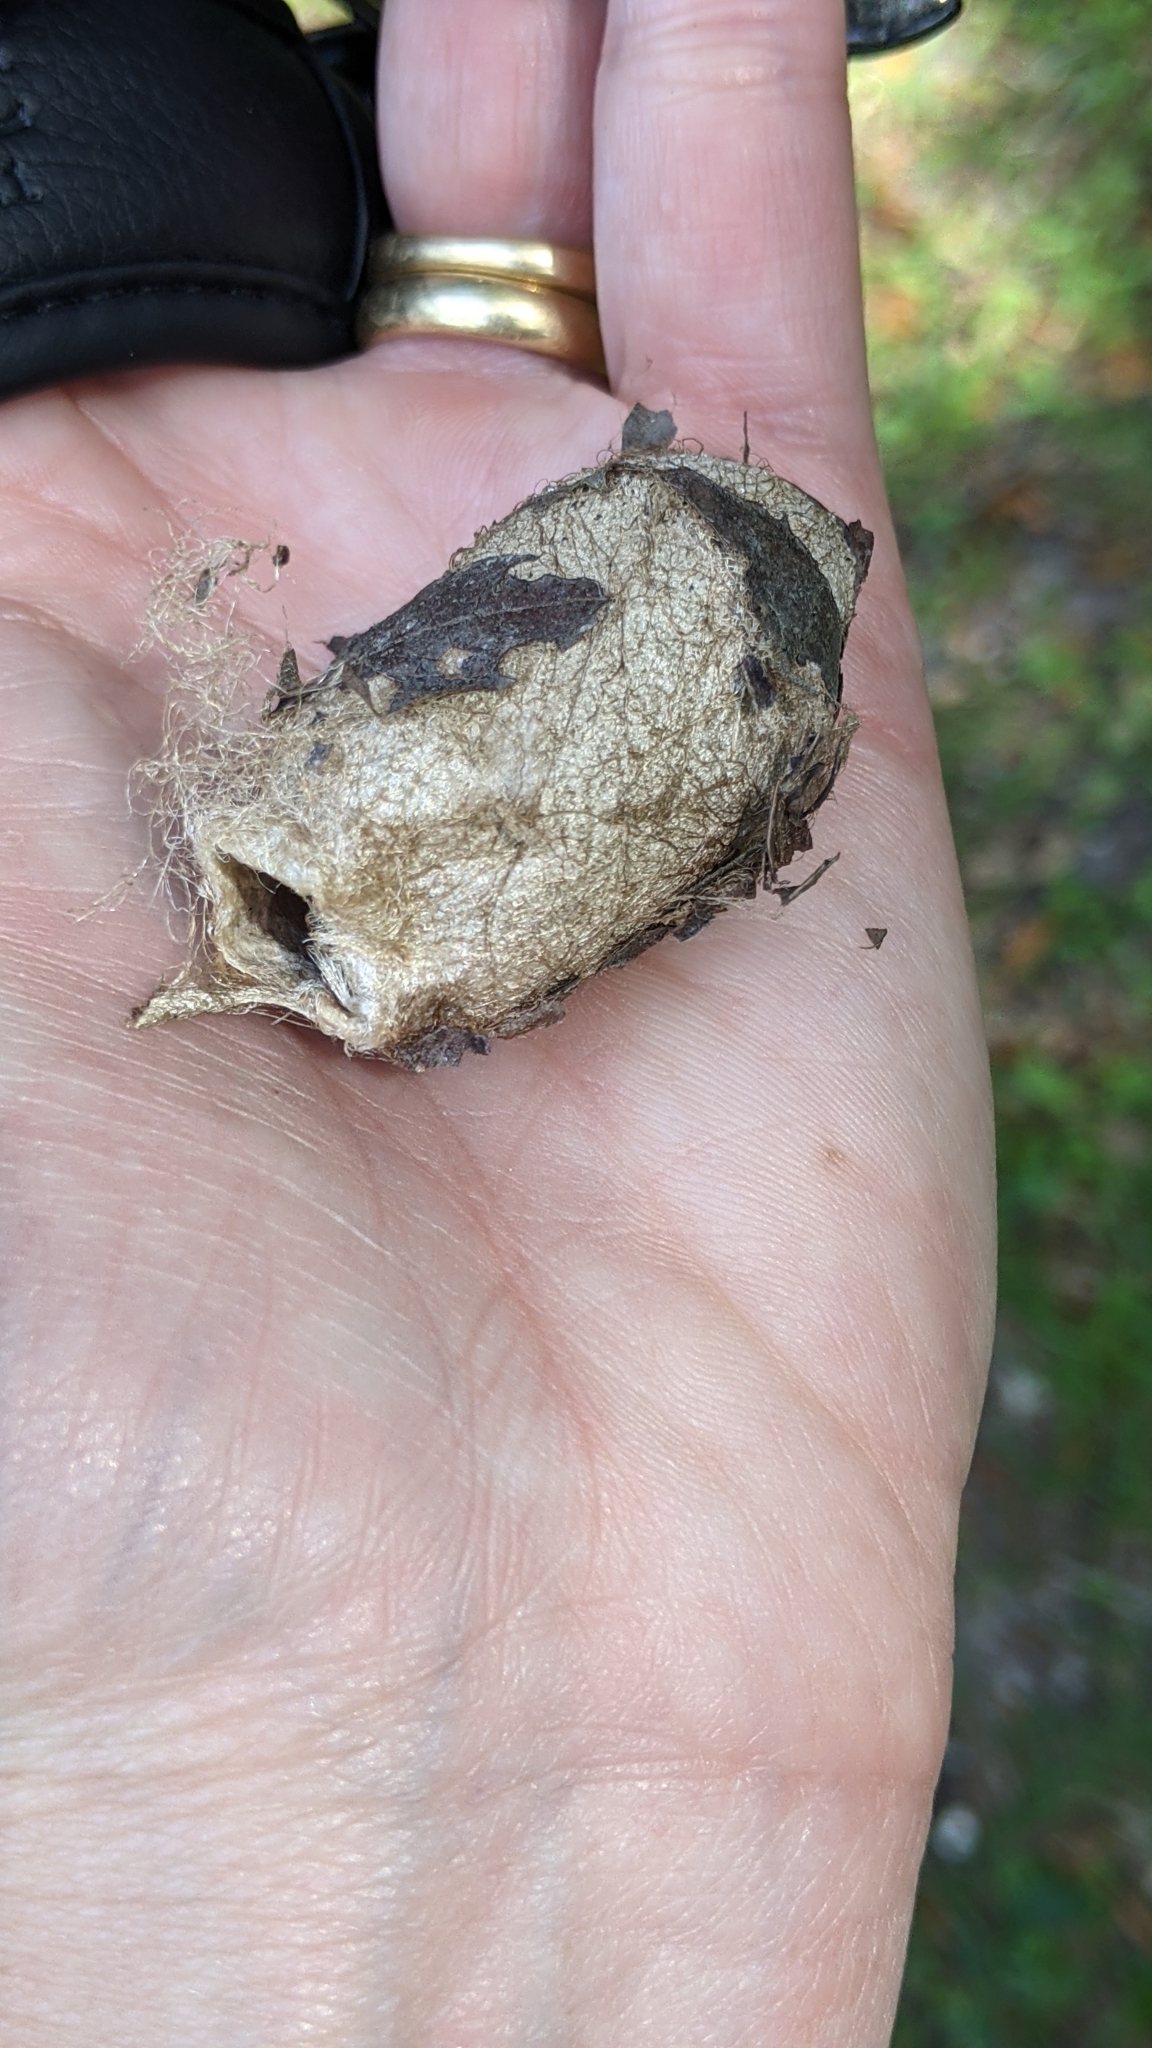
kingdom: Animalia
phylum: Arthropoda
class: Insecta
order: Lepidoptera
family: Saturniidae
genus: Antheraea
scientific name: Antheraea polyphemus
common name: Polyphemus moth
